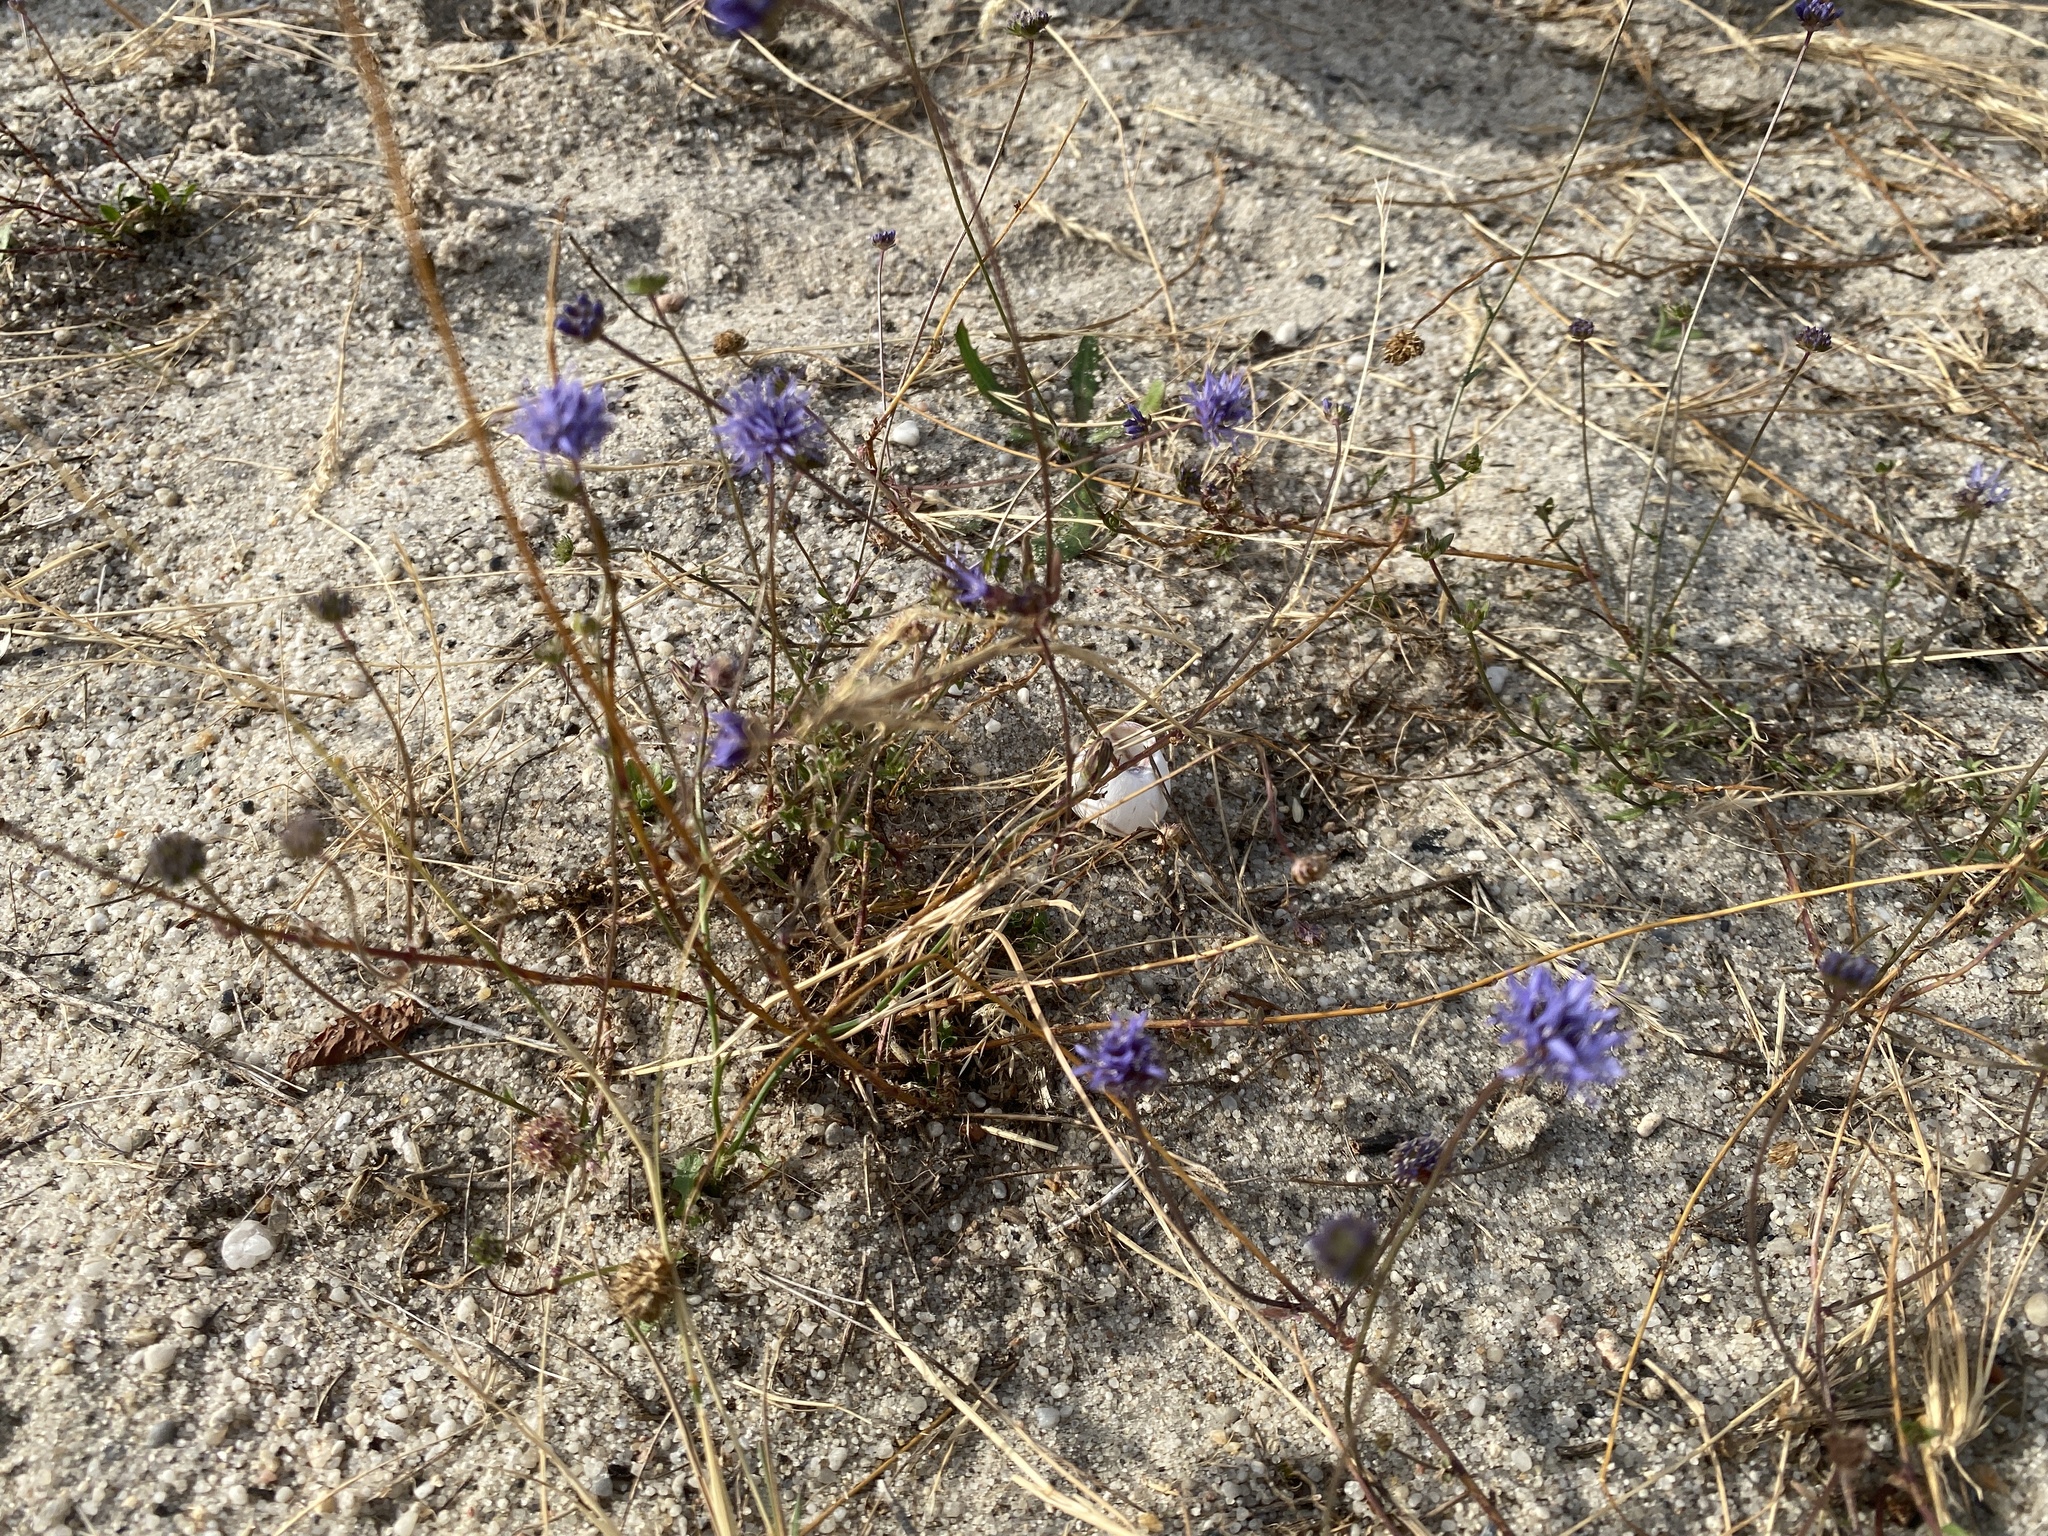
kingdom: Plantae
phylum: Tracheophyta
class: Magnoliopsida
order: Asterales
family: Campanulaceae
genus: Jasione
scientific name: Jasione montana
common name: Sheep's-bit
